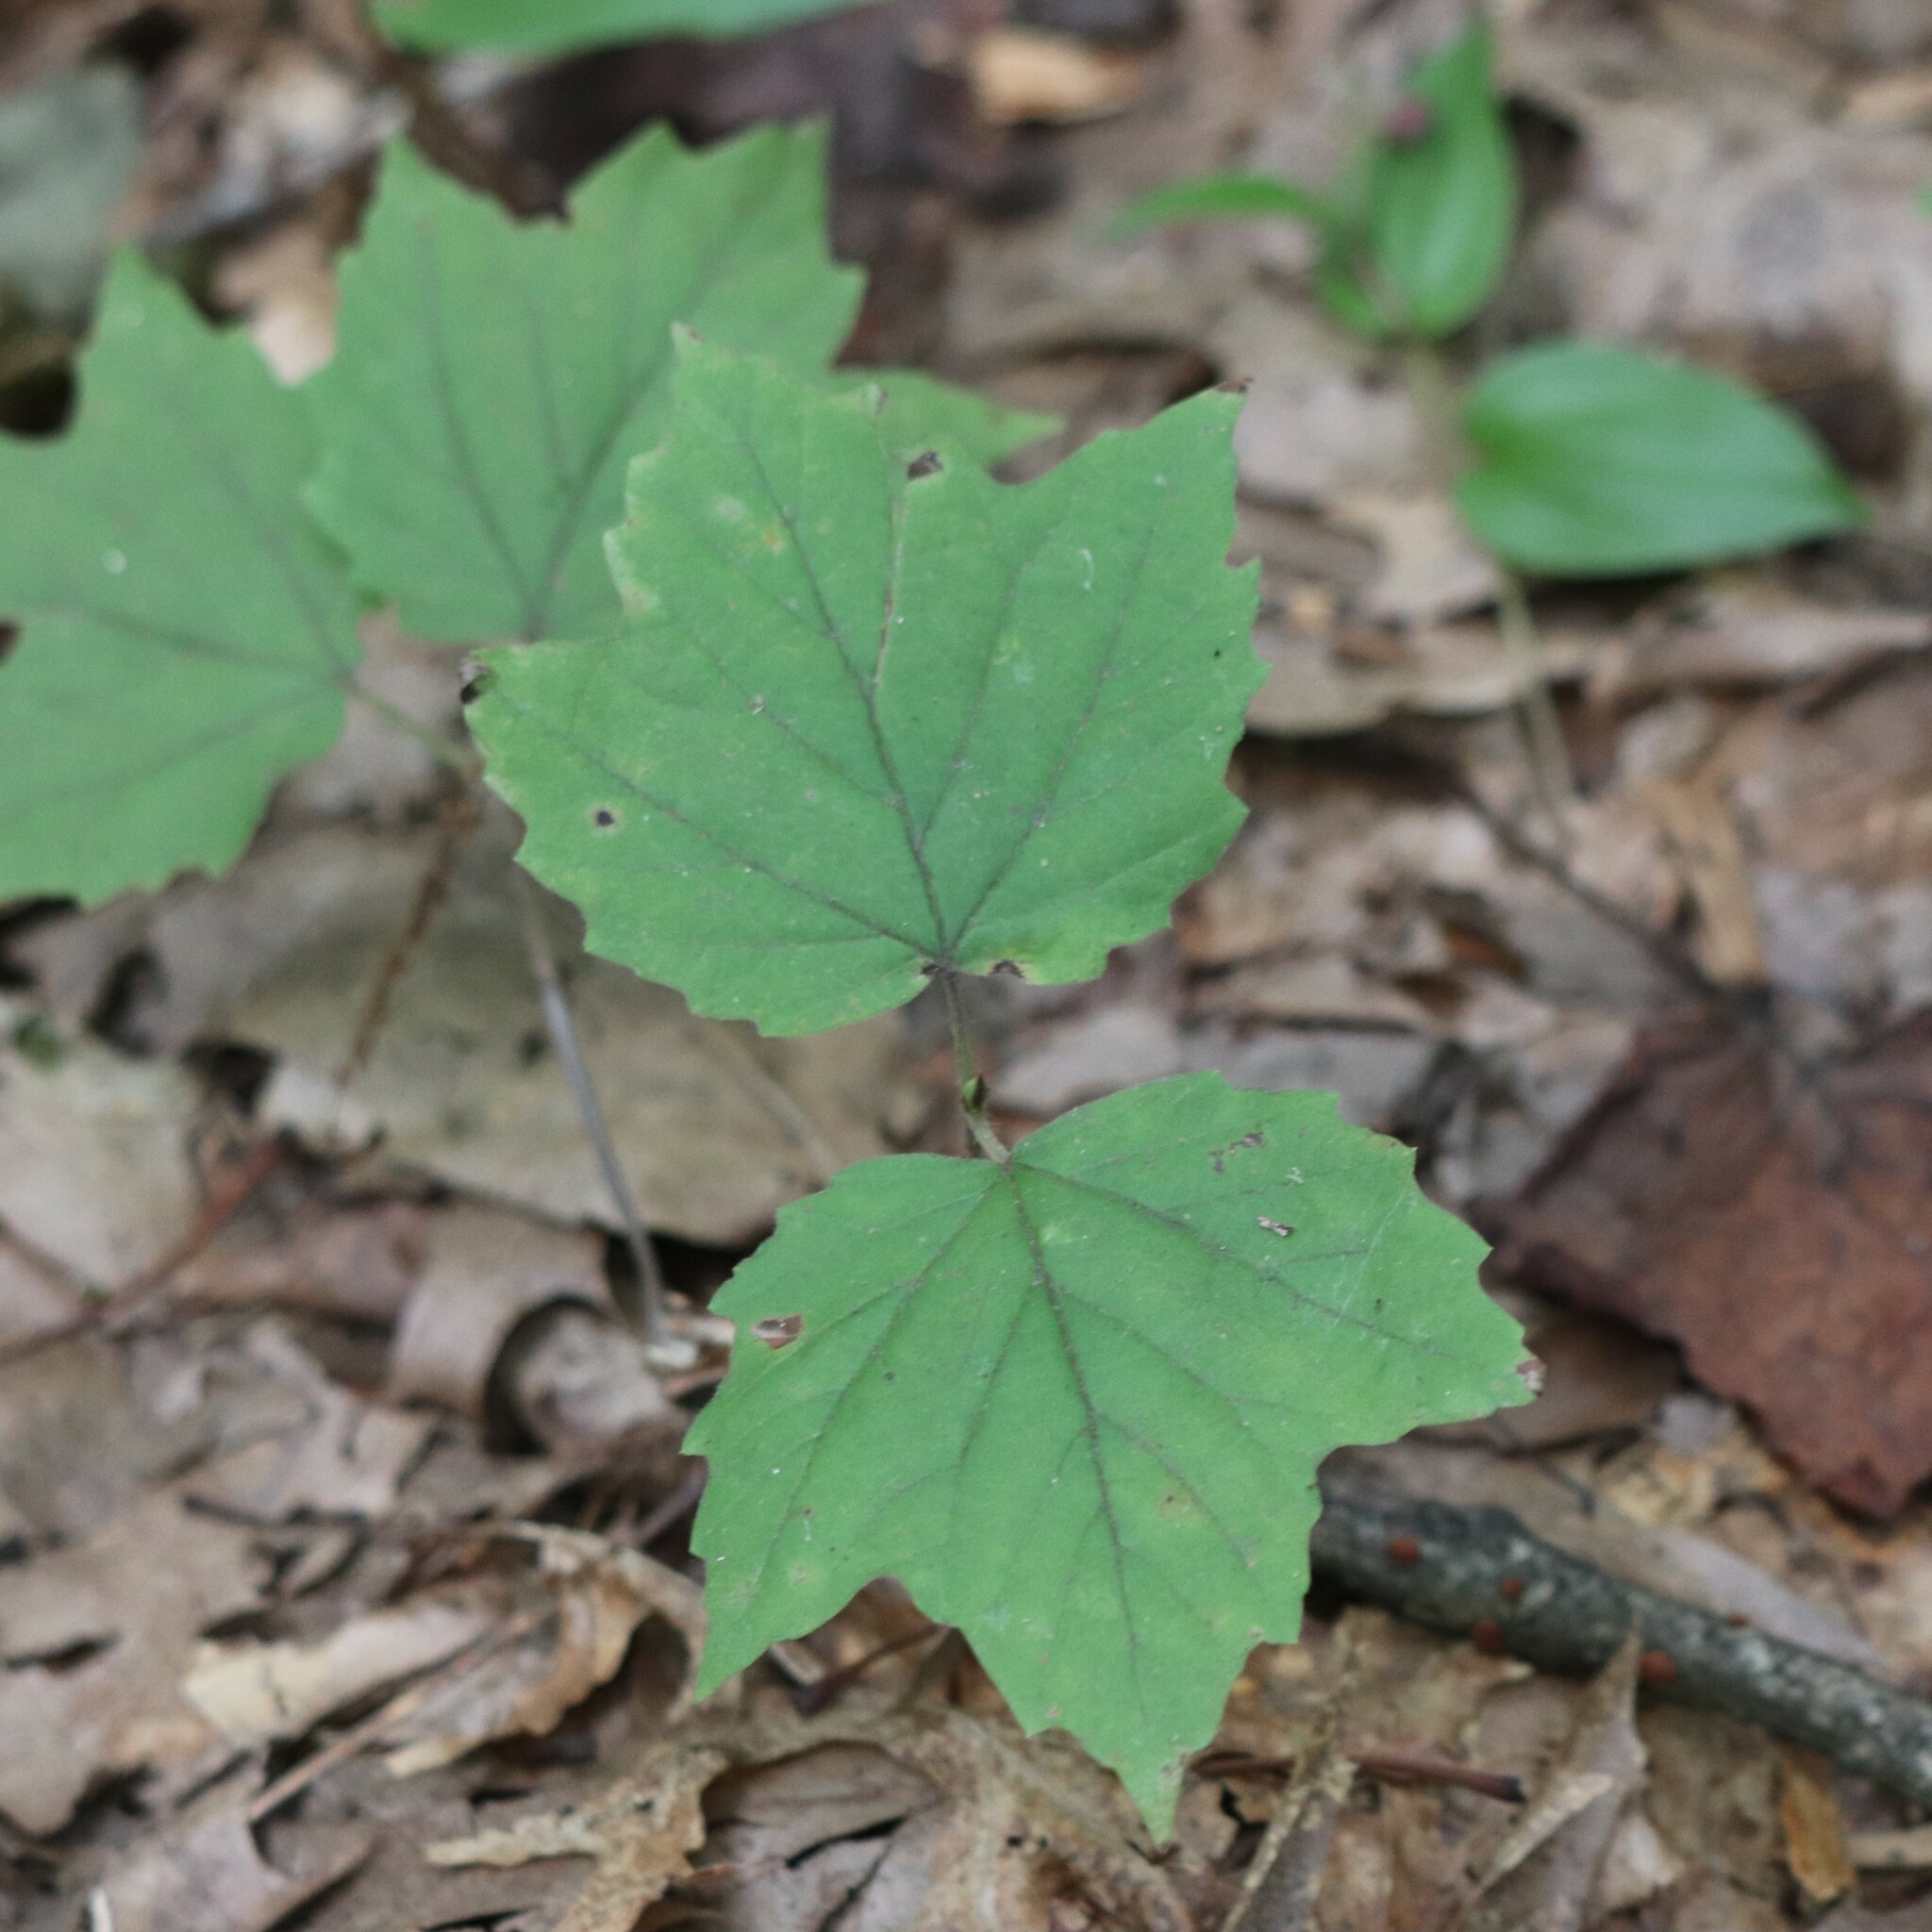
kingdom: Plantae
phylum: Tracheophyta
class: Magnoliopsida
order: Dipsacales
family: Viburnaceae
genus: Viburnum
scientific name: Viburnum acerifolium
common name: Dockmackie
